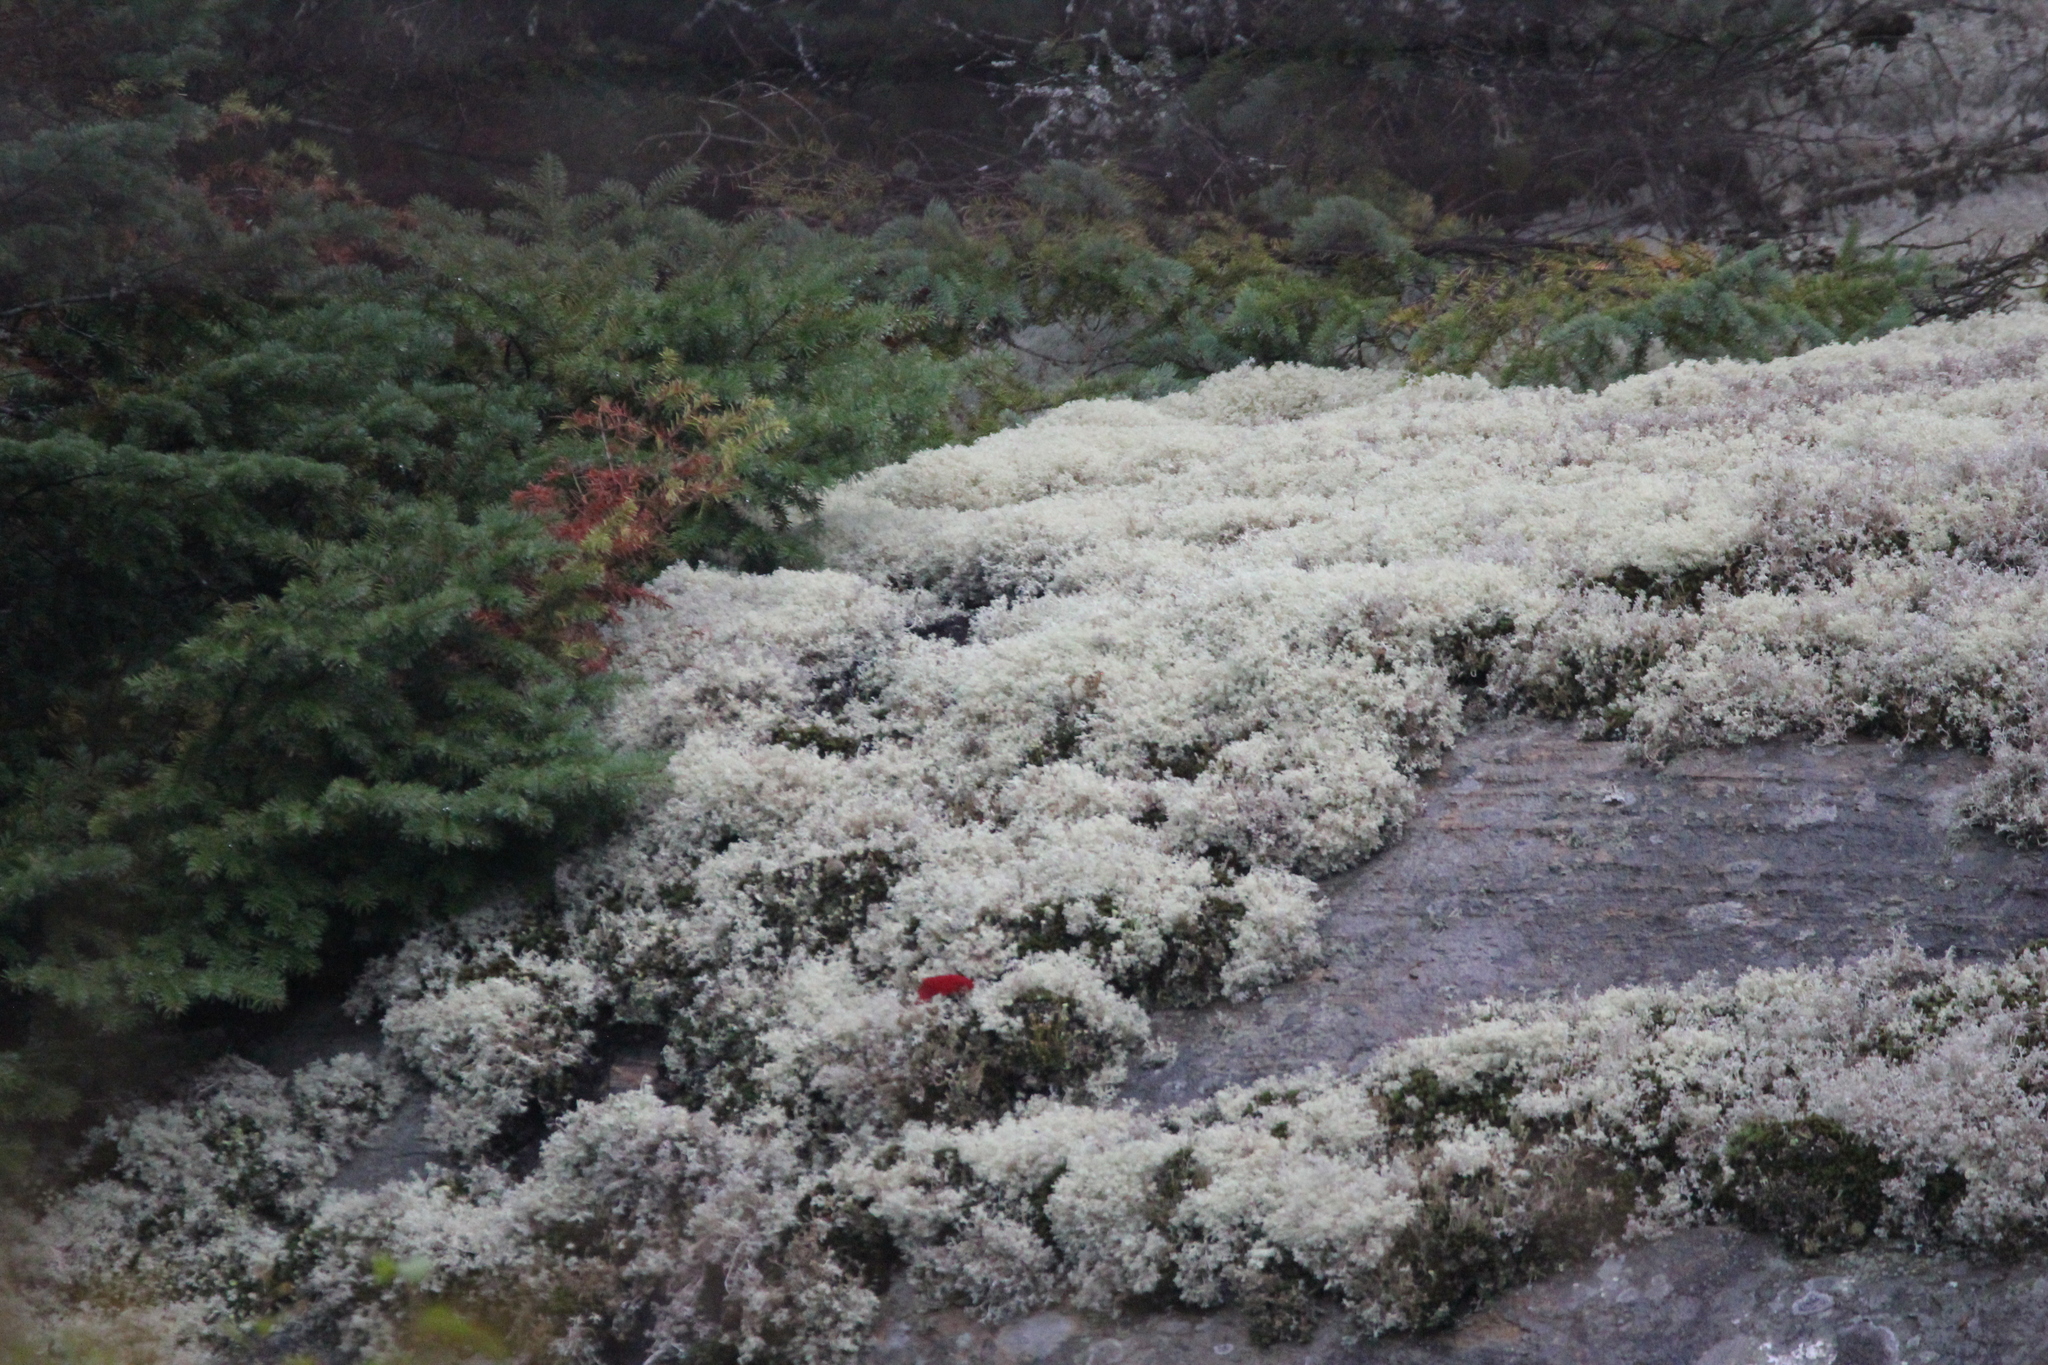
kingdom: Fungi
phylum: Ascomycota
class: Lecanoromycetes
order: Lecanorales
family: Cladoniaceae
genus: Cladonia
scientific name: Cladonia rangiferina
